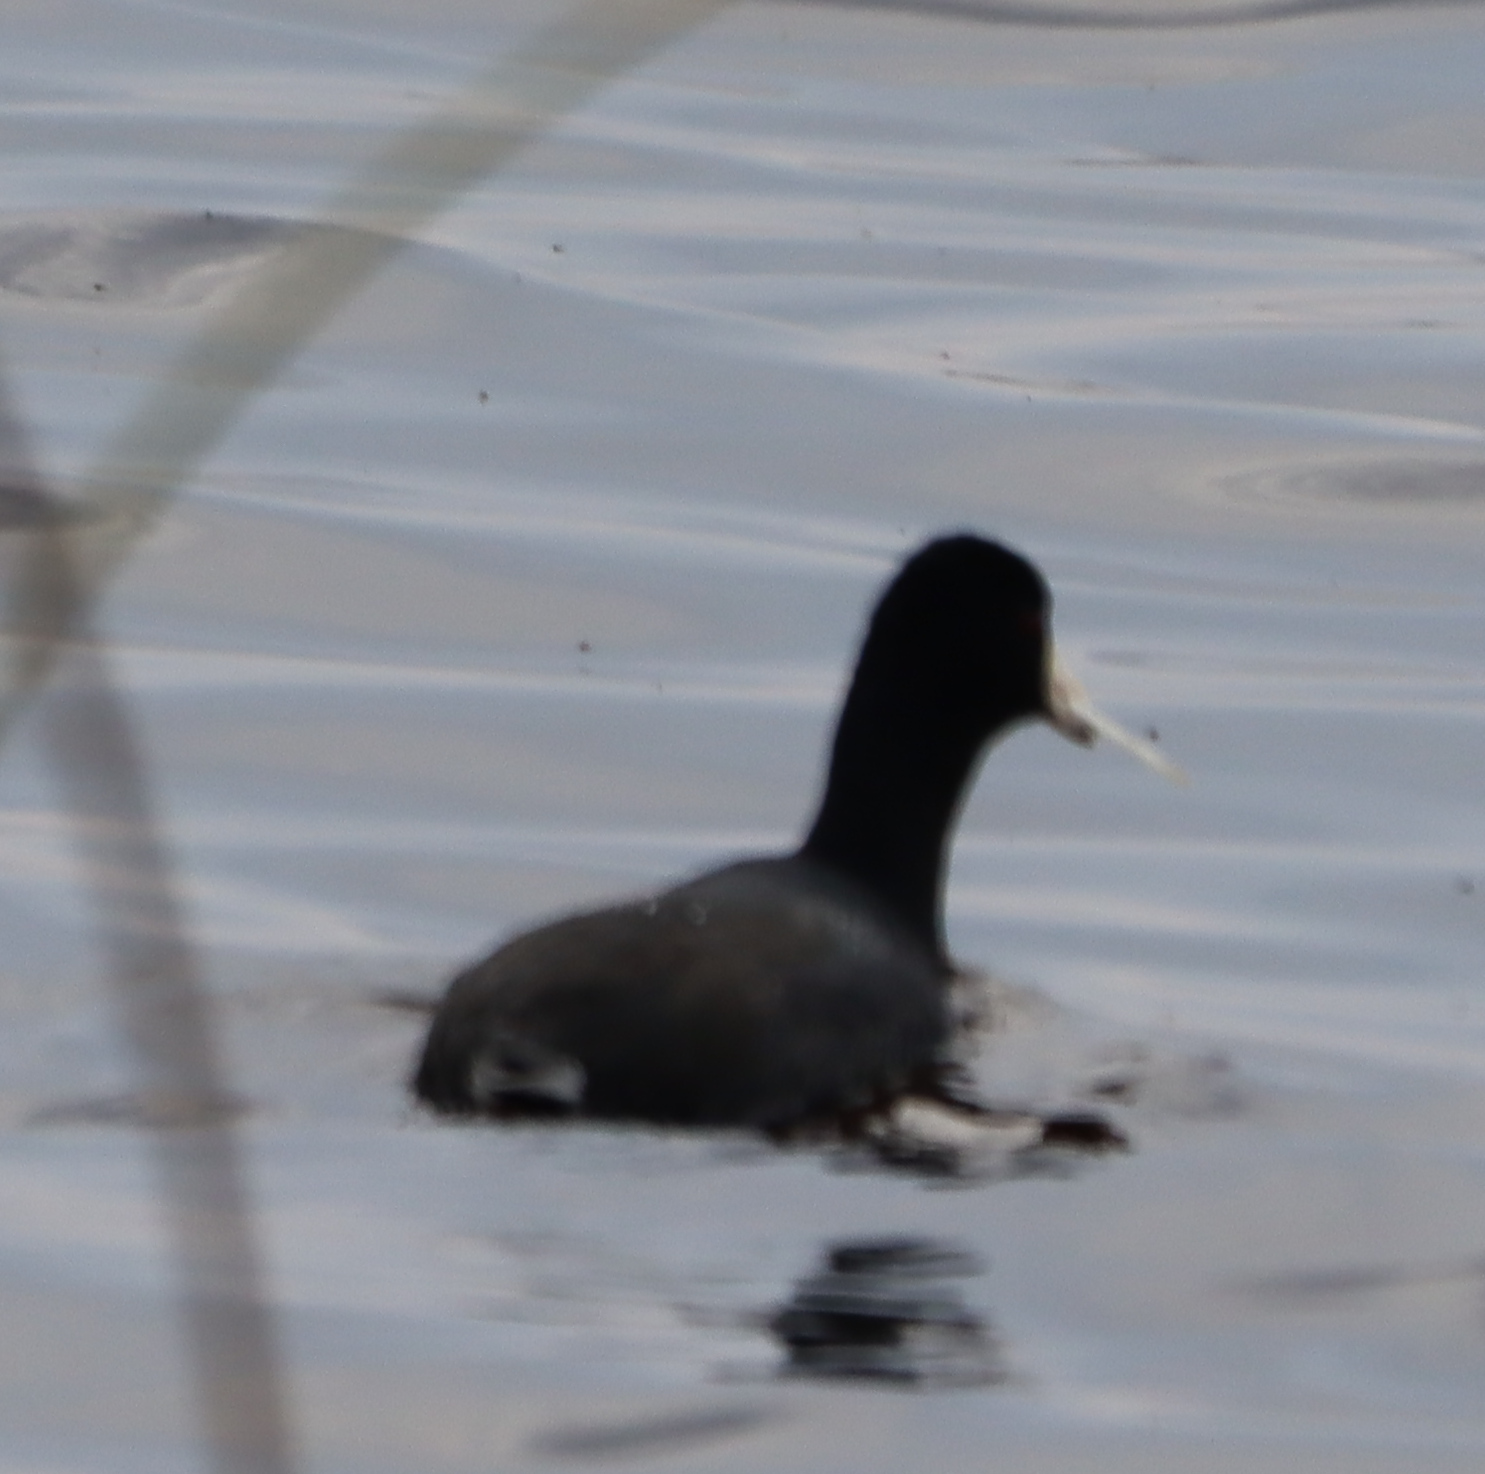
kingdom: Animalia
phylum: Chordata
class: Aves
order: Gruiformes
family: Rallidae
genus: Fulica
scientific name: Fulica americana
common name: American coot
